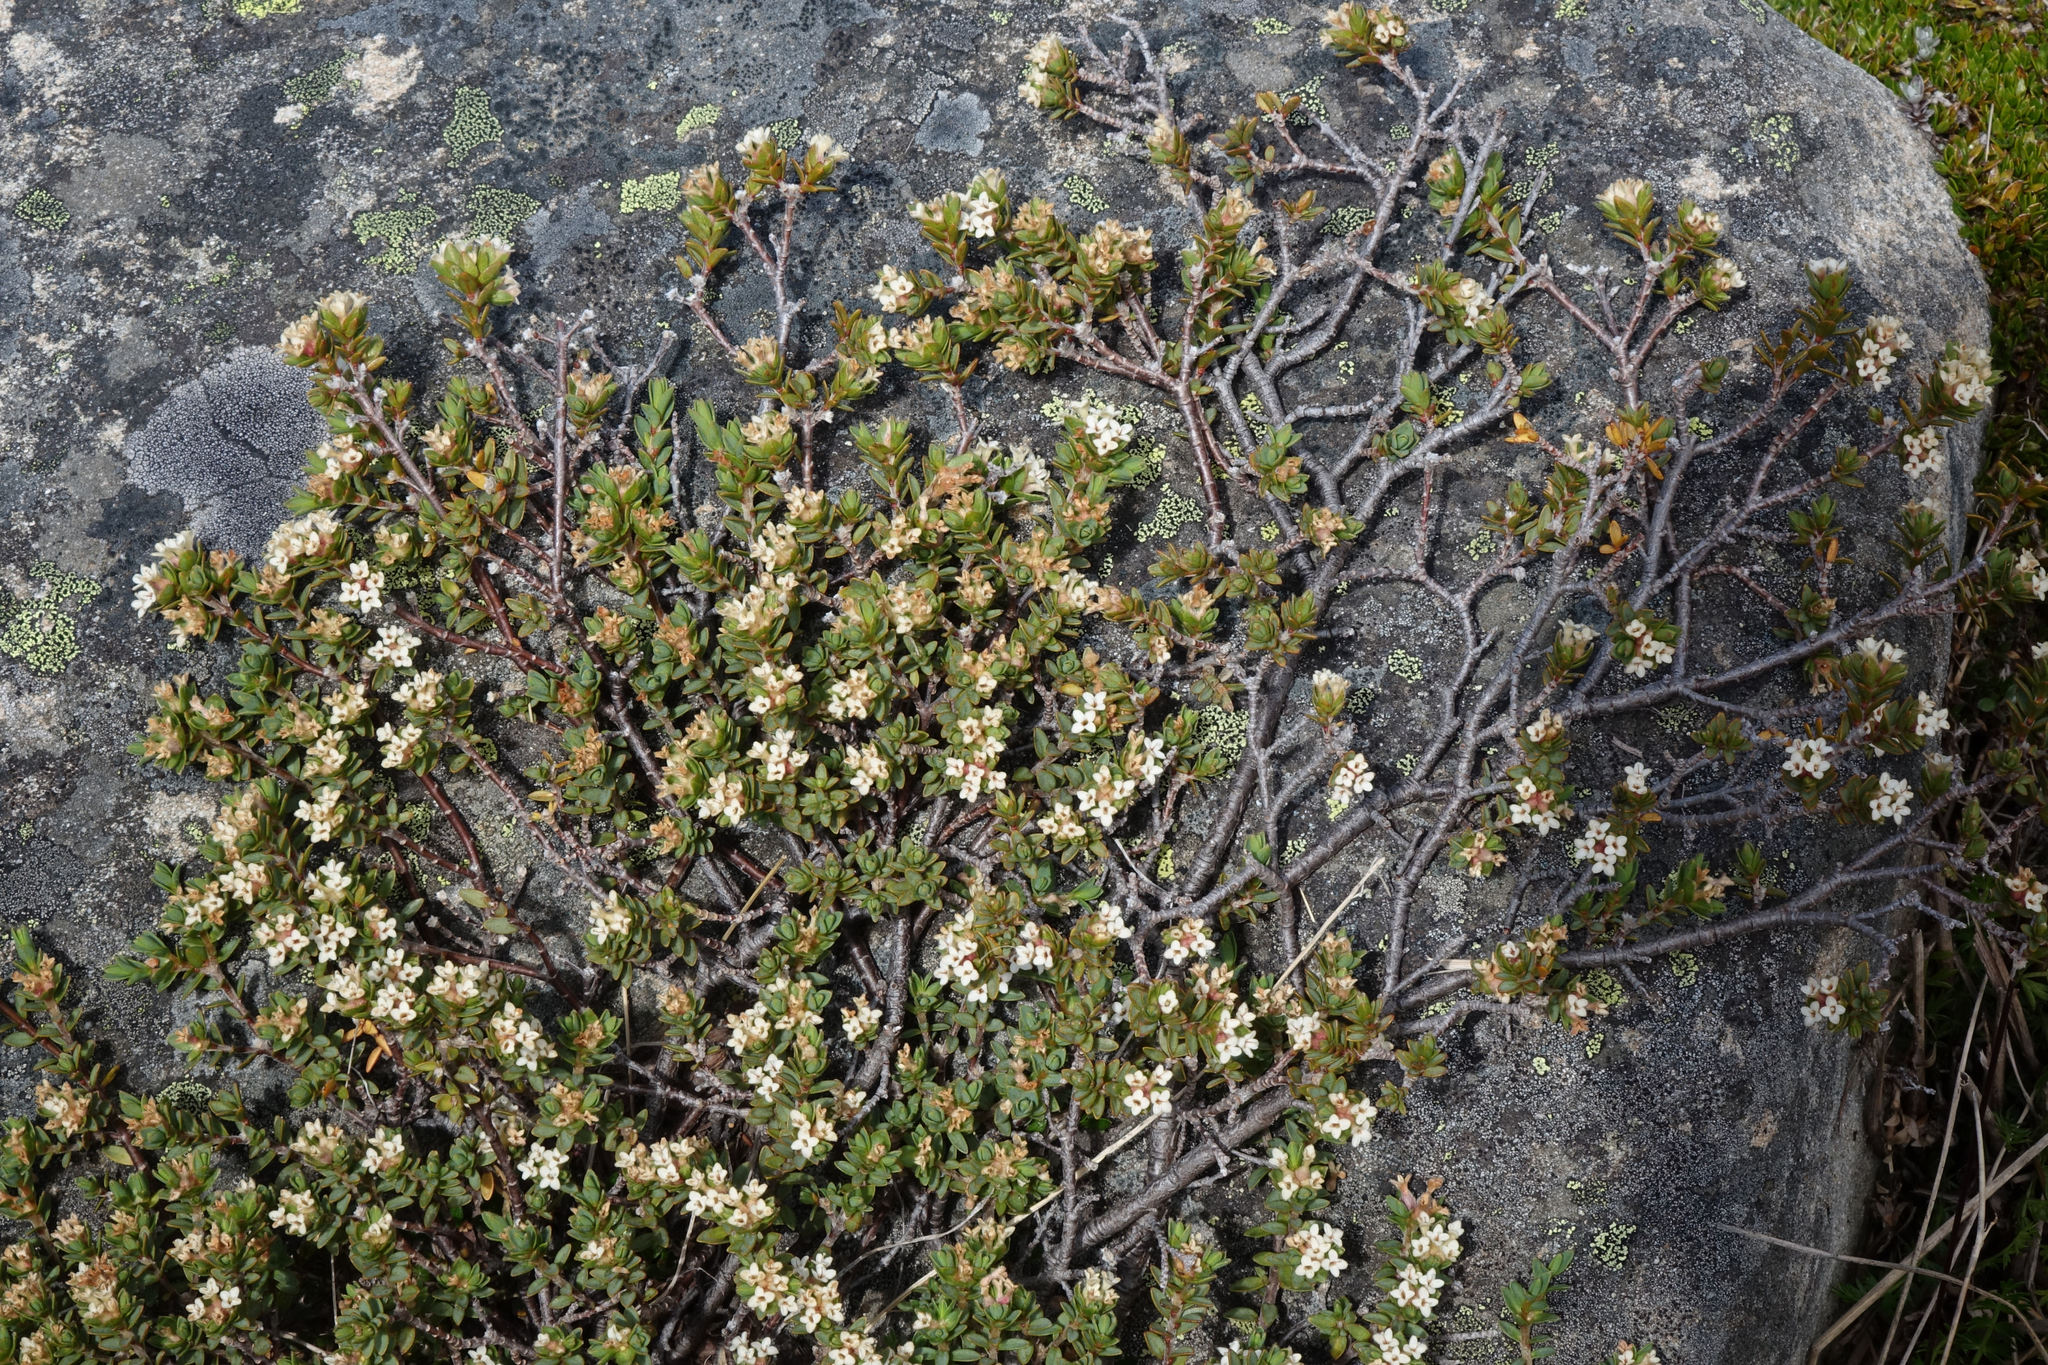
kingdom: Plantae
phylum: Tracheophyta
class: Magnoliopsida
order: Malvales
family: Thymelaeaceae
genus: Pimelea
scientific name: Pimelea notia
